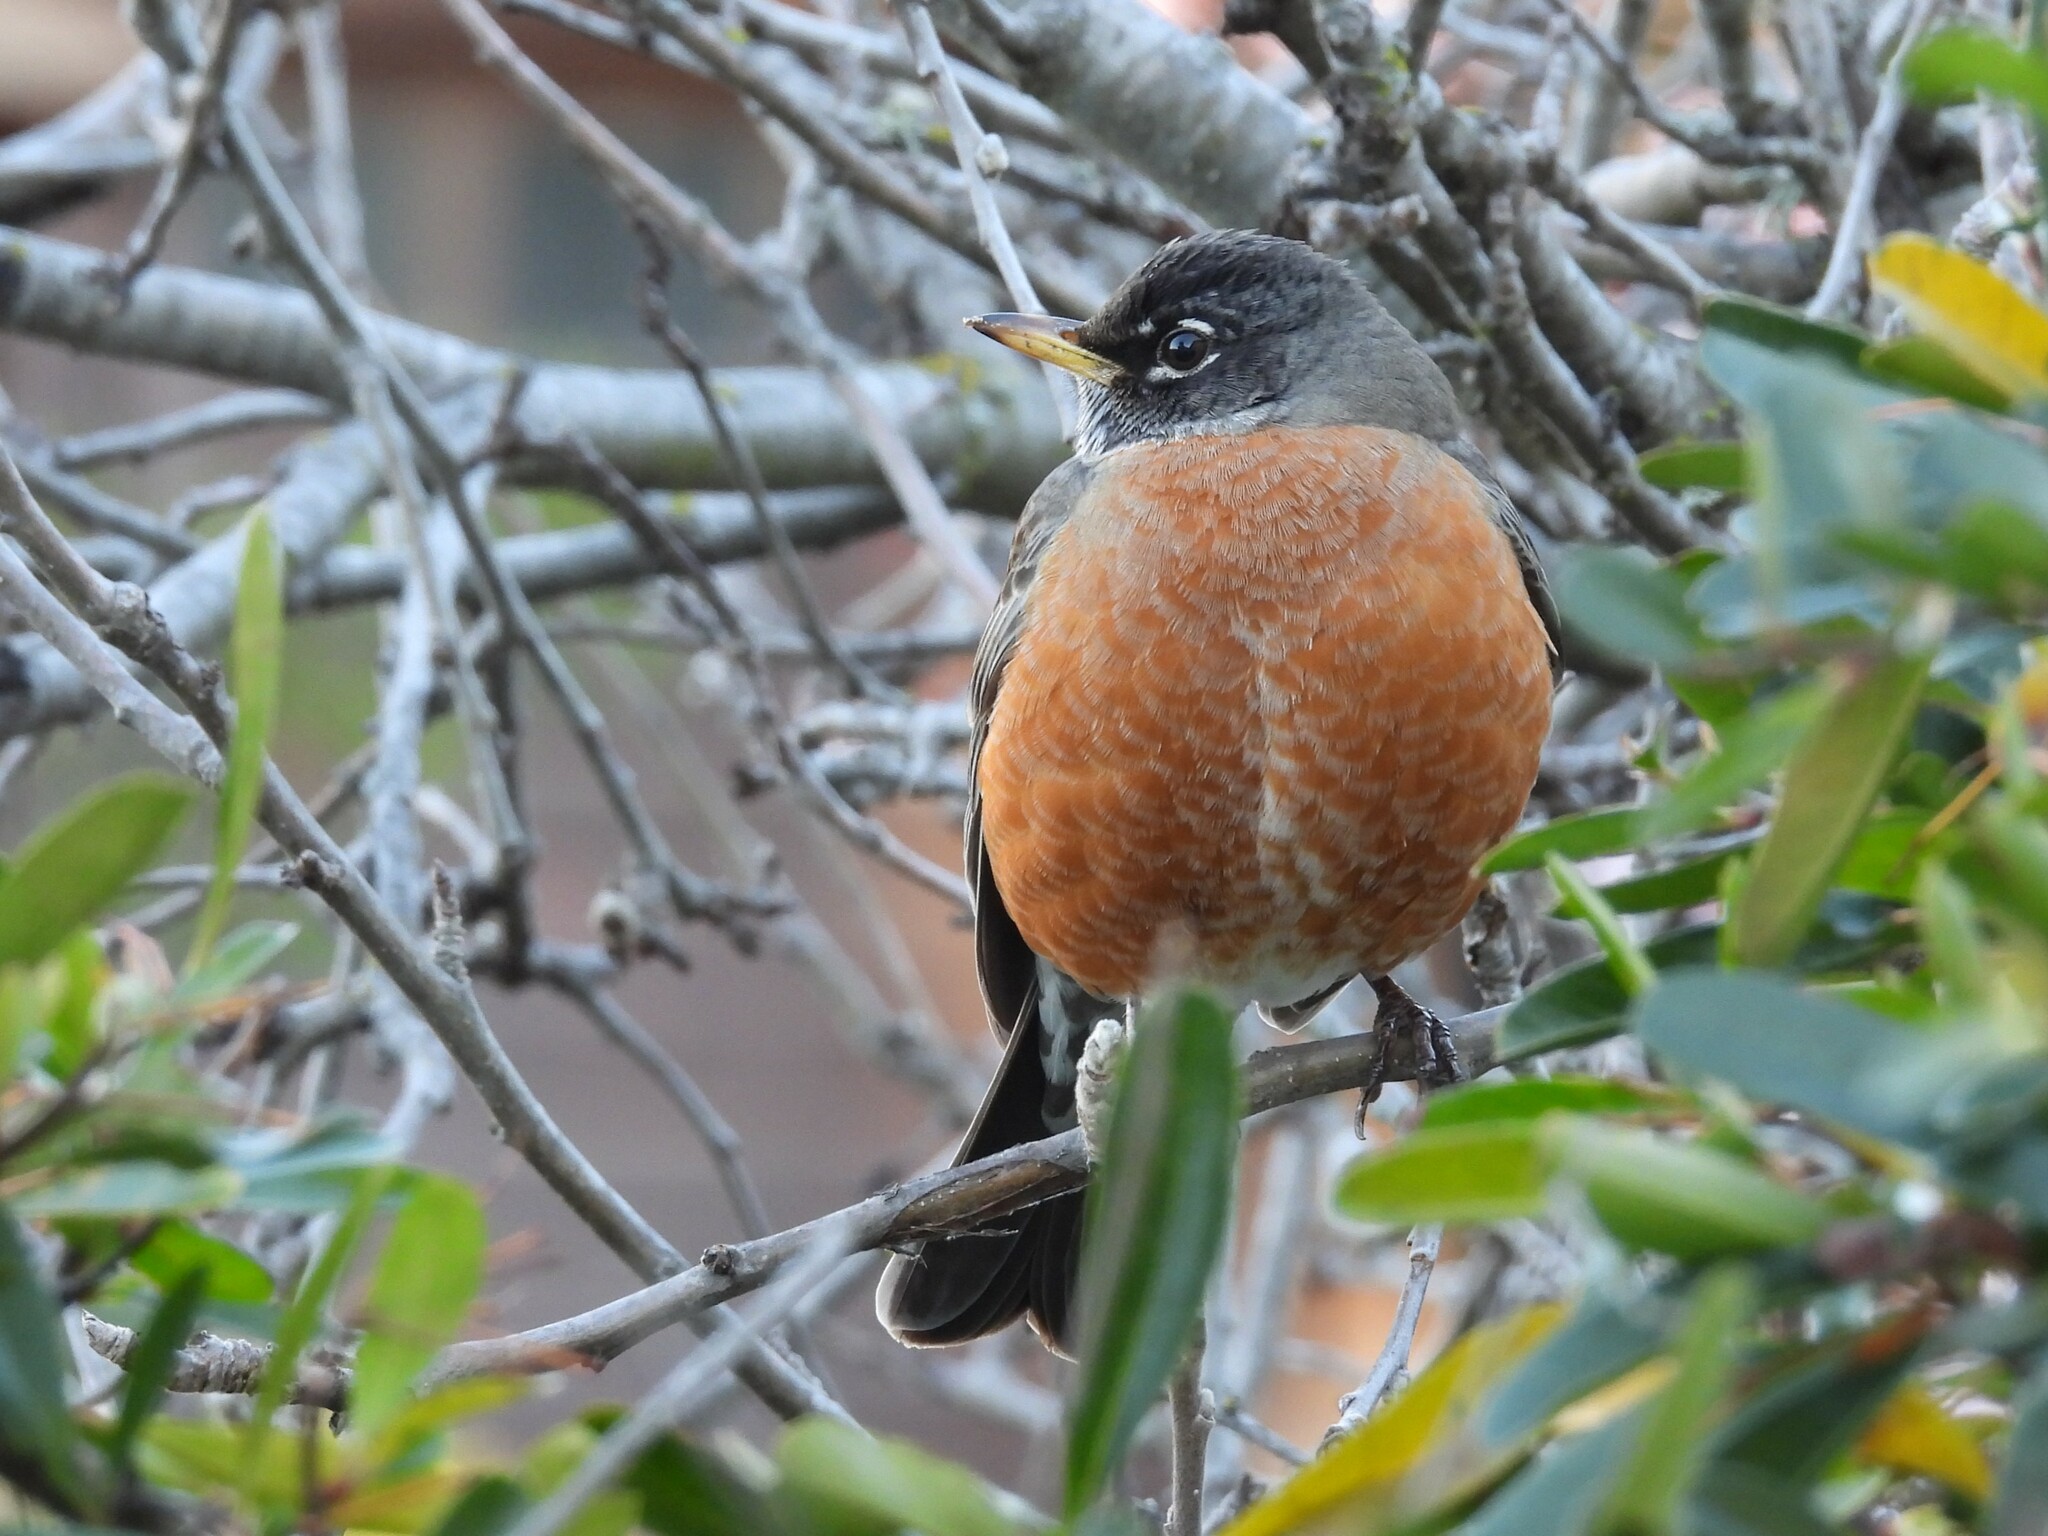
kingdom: Animalia
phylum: Chordata
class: Aves
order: Passeriformes
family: Turdidae
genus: Turdus
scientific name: Turdus migratorius
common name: American robin
